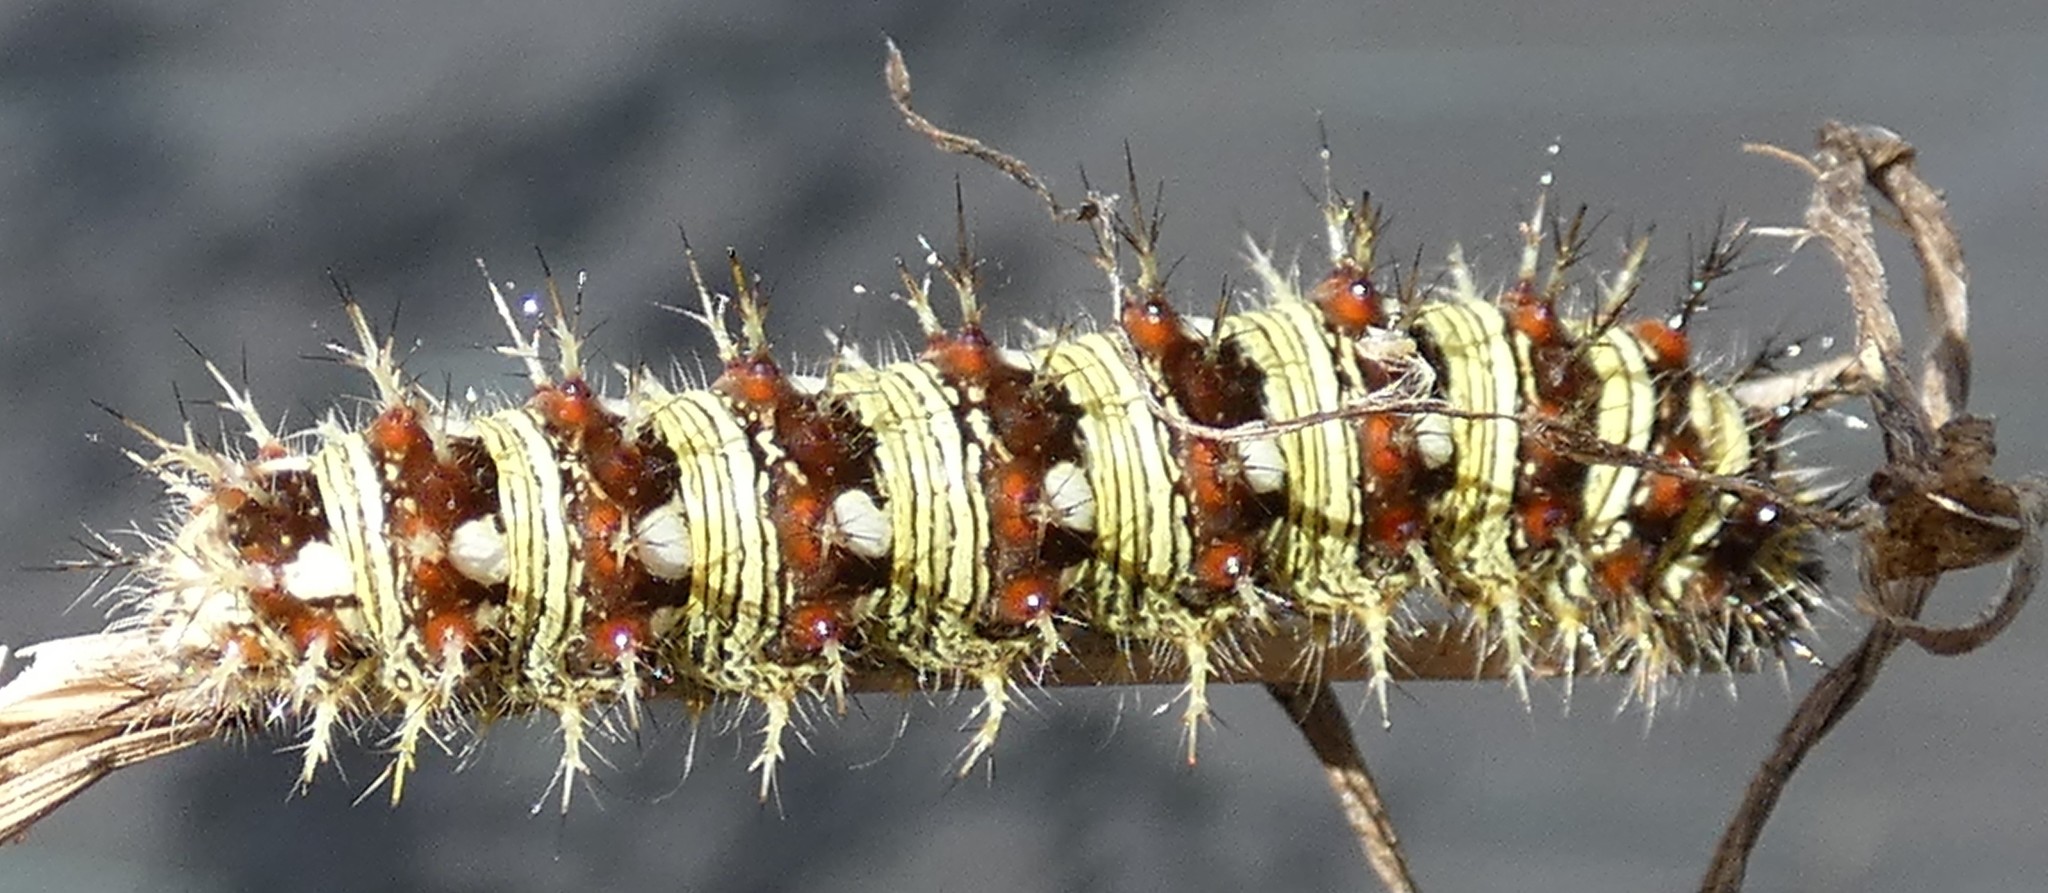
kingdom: Animalia
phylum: Arthropoda
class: Insecta
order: Lepidoptera
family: Nymphalidae
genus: Vanessa
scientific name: Vanessa virginiensis
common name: American lady
